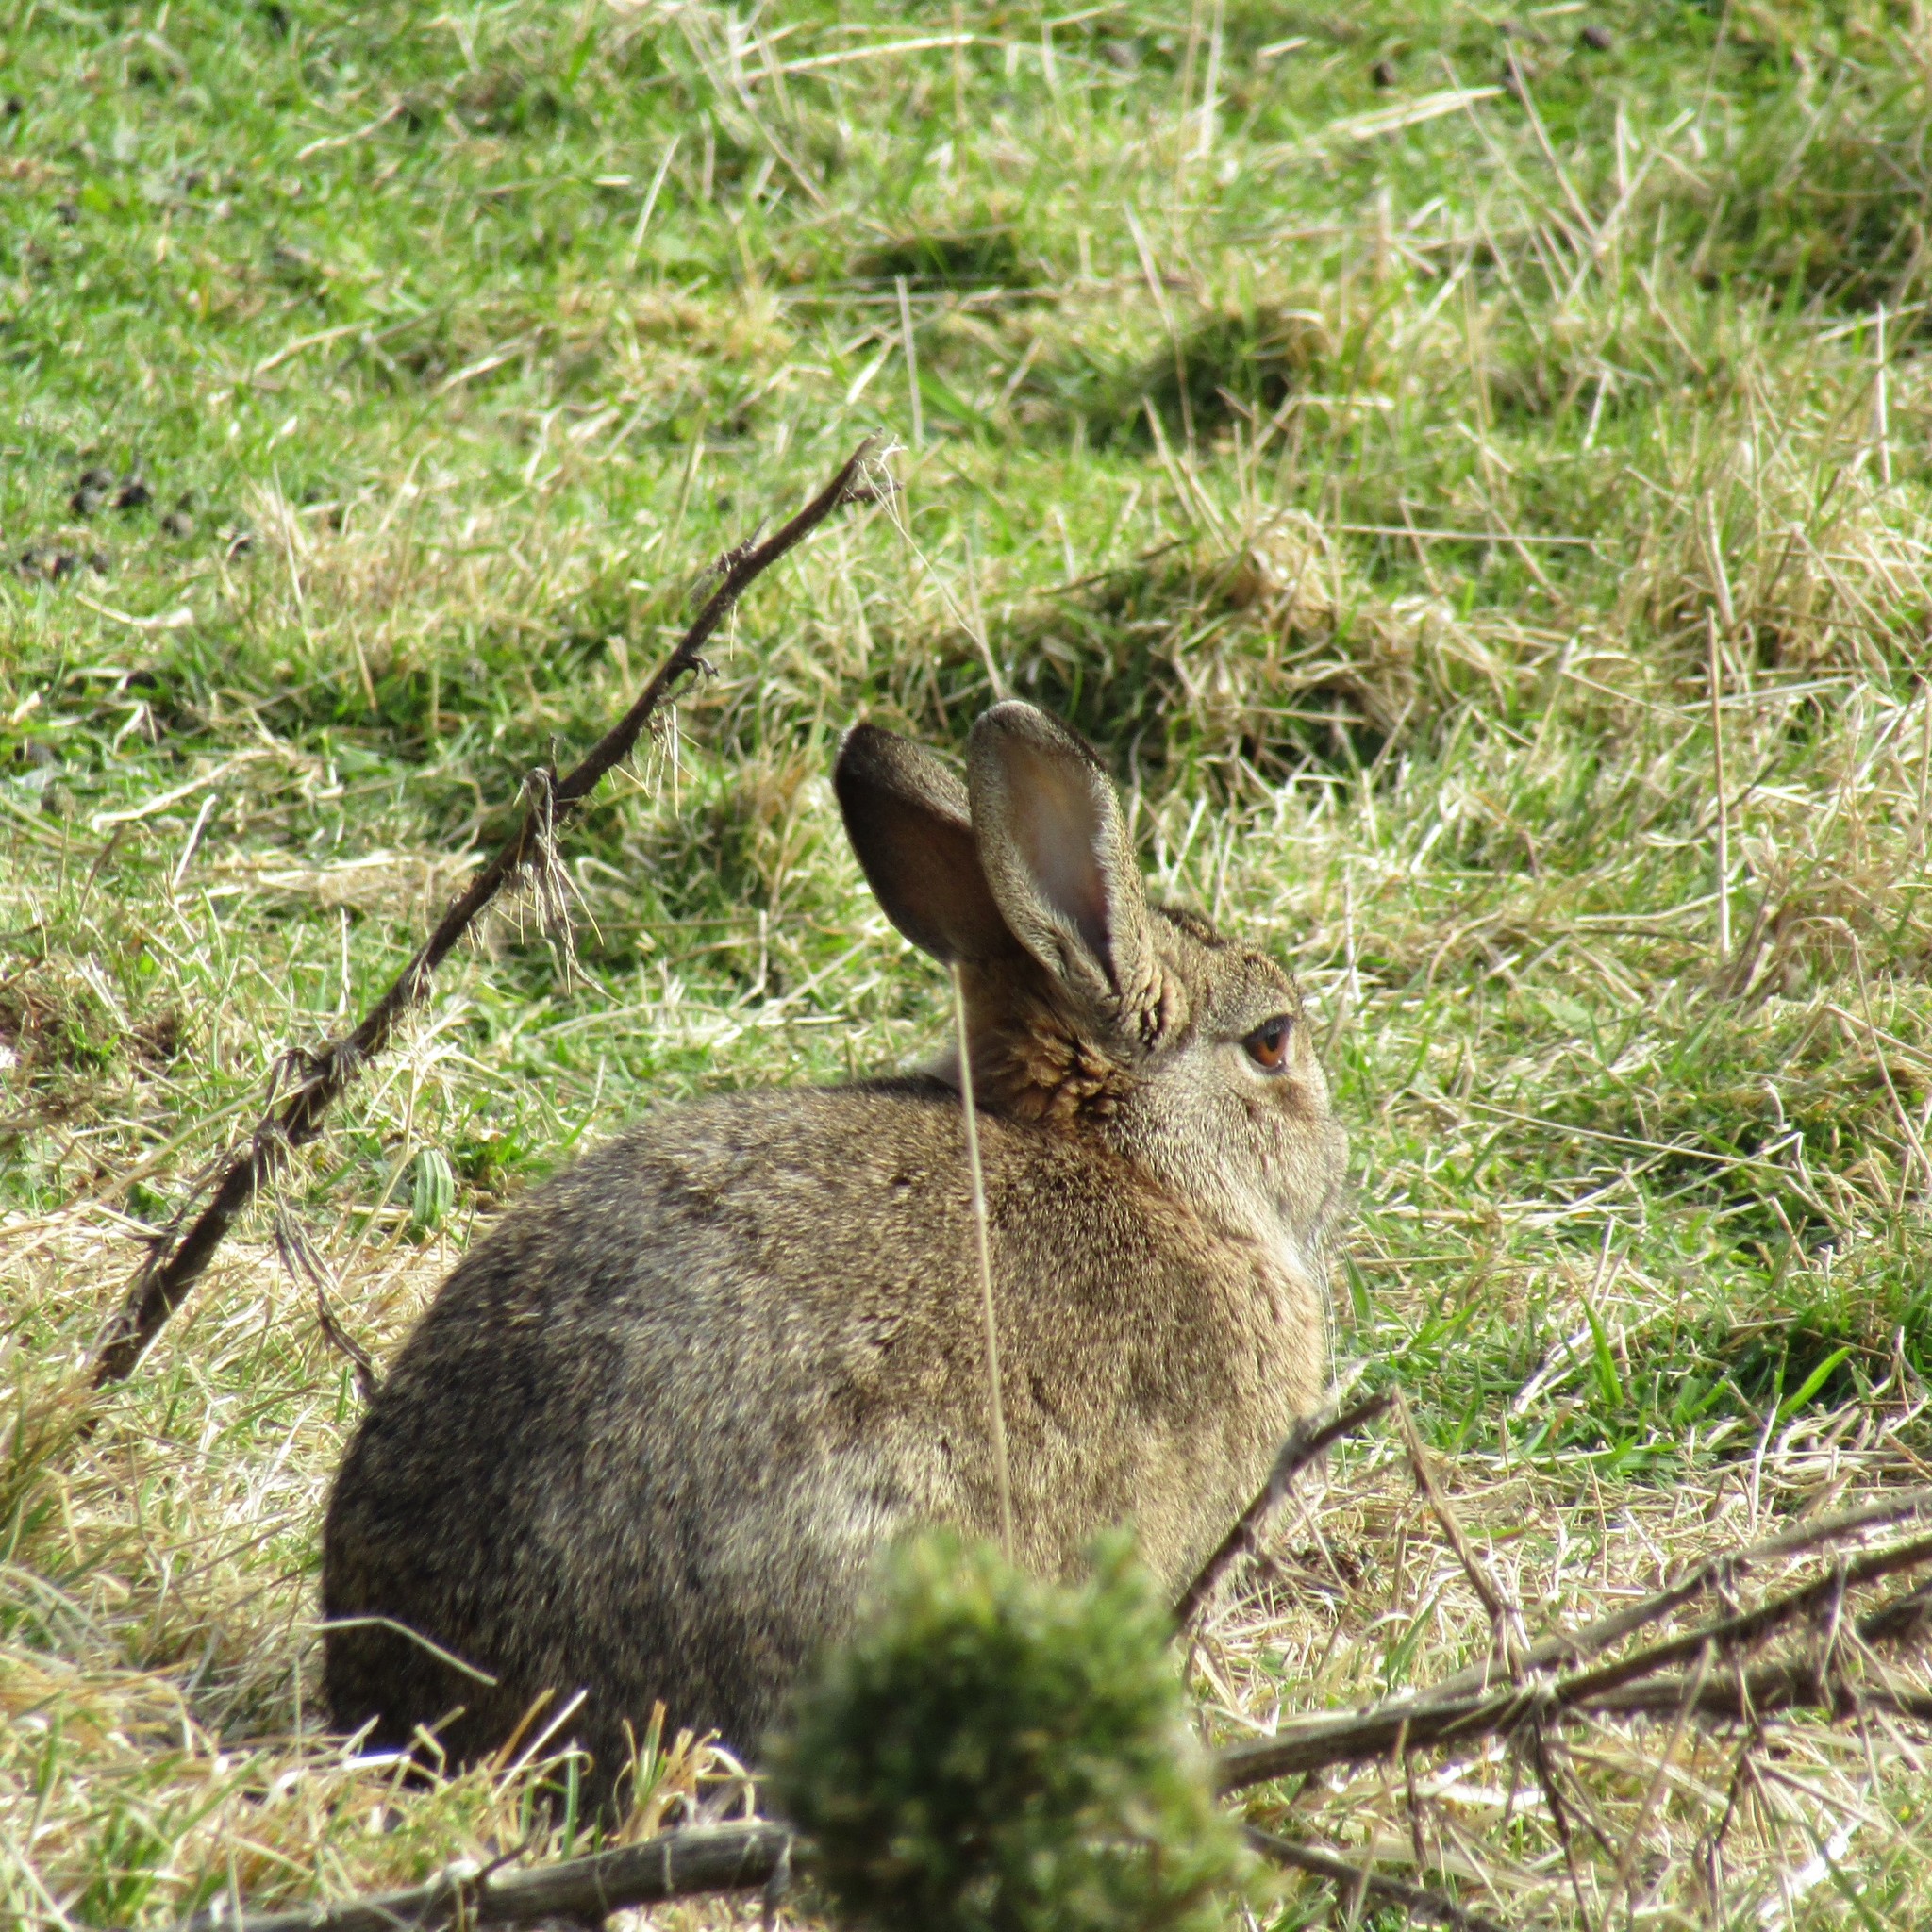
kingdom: Animalia
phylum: Chordata
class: Mammalia
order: Lagomorpha
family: Leporidae
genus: Oryctolagus
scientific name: Oryctolagus cuniculus
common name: European rabbit
